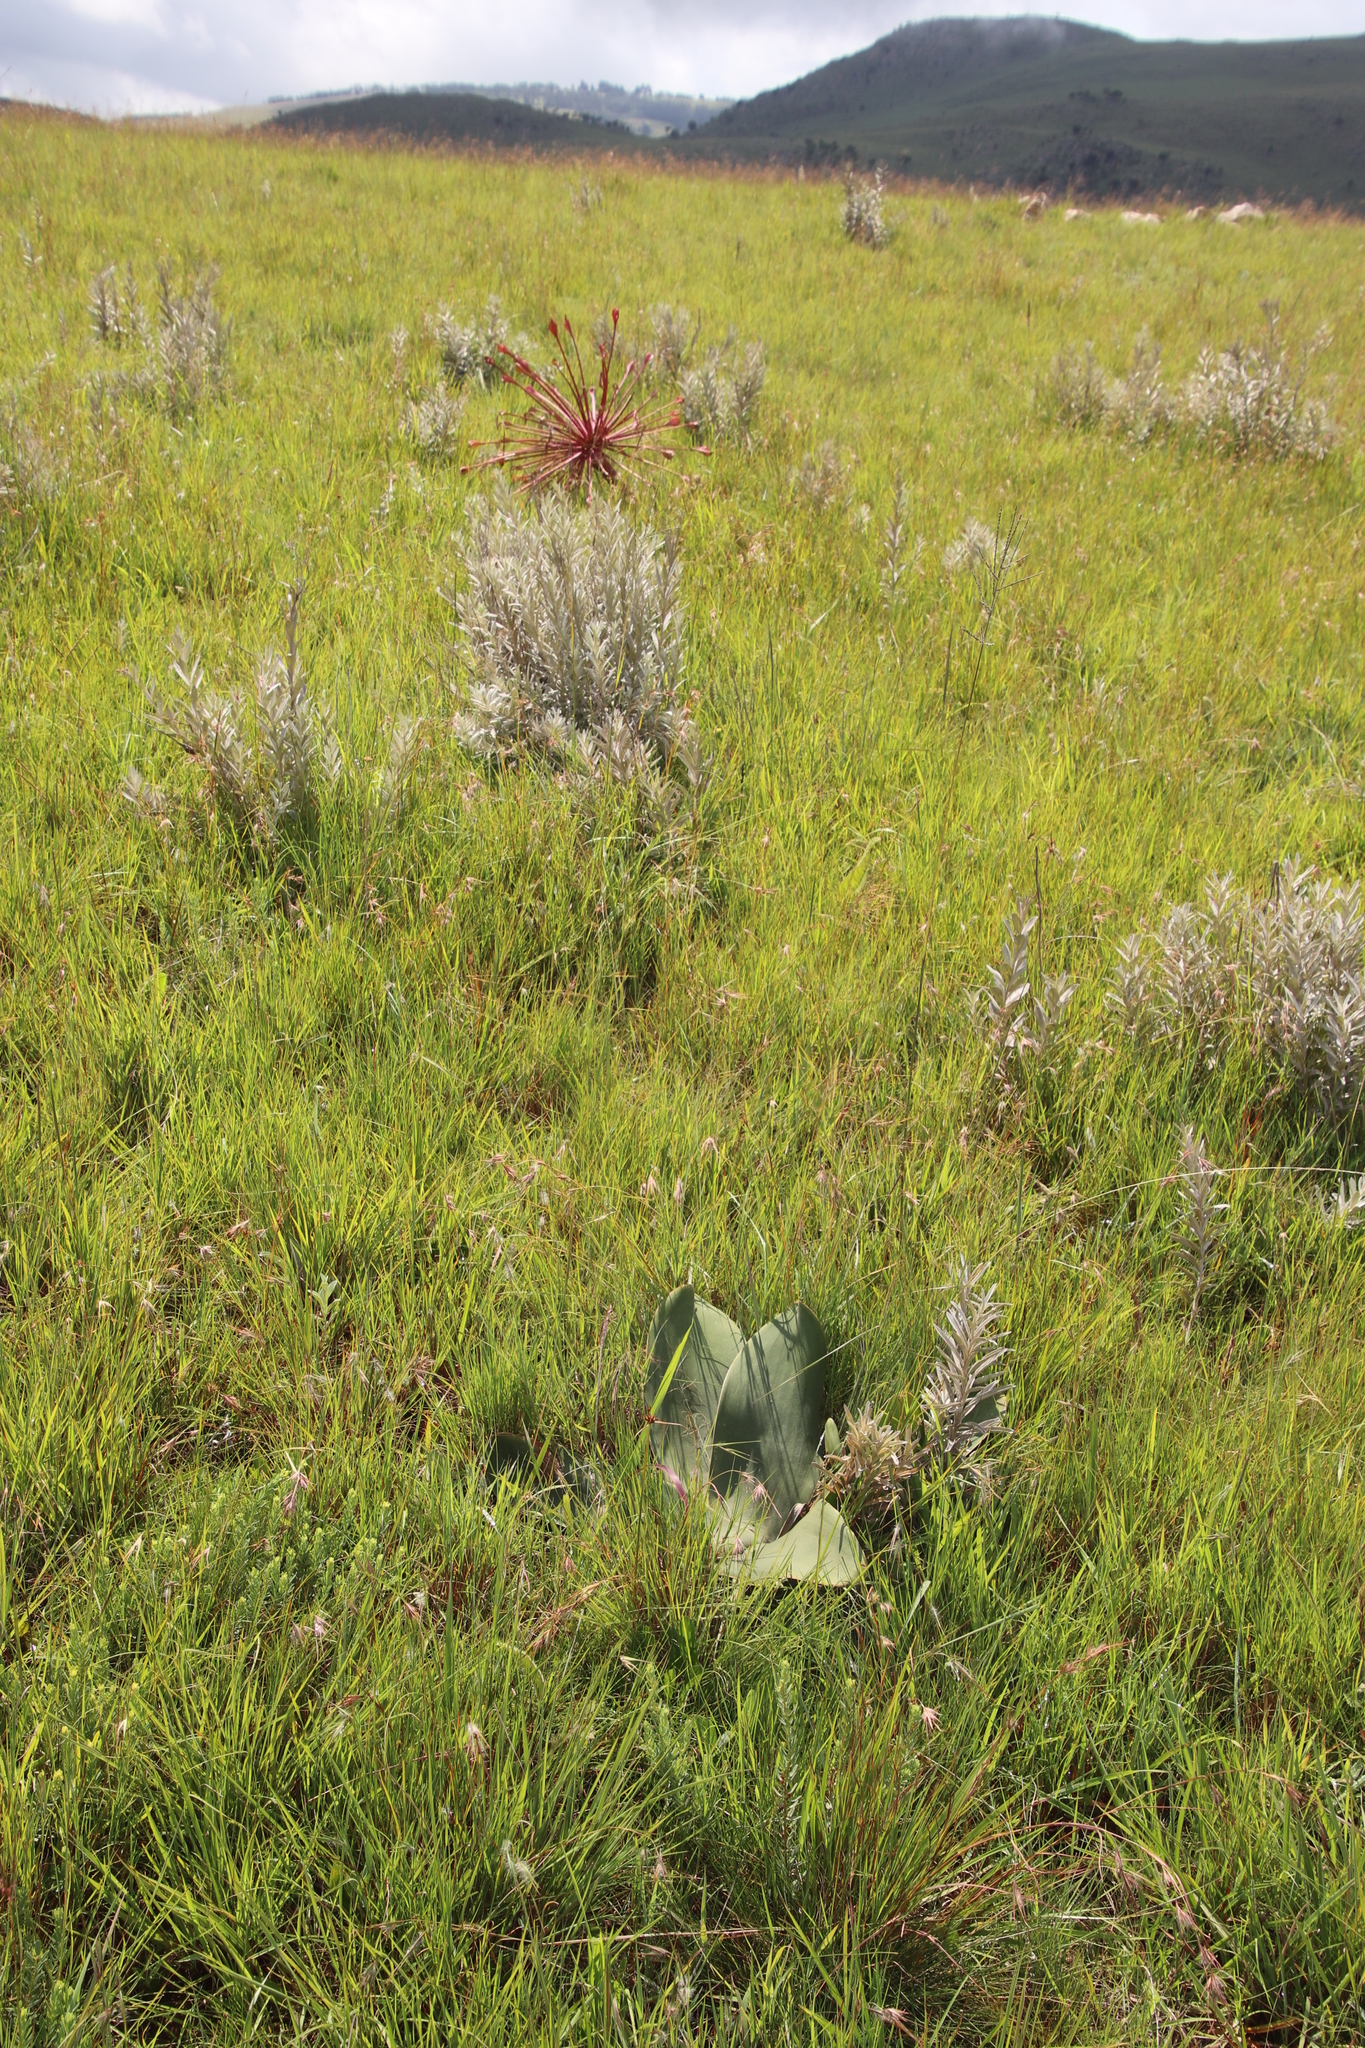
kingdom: Plantae
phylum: Tracheophyta
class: Liliopsida
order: Asparagales
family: Amaryllidaceae
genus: Brunsvigia
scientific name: Brunsvigia radulosa
